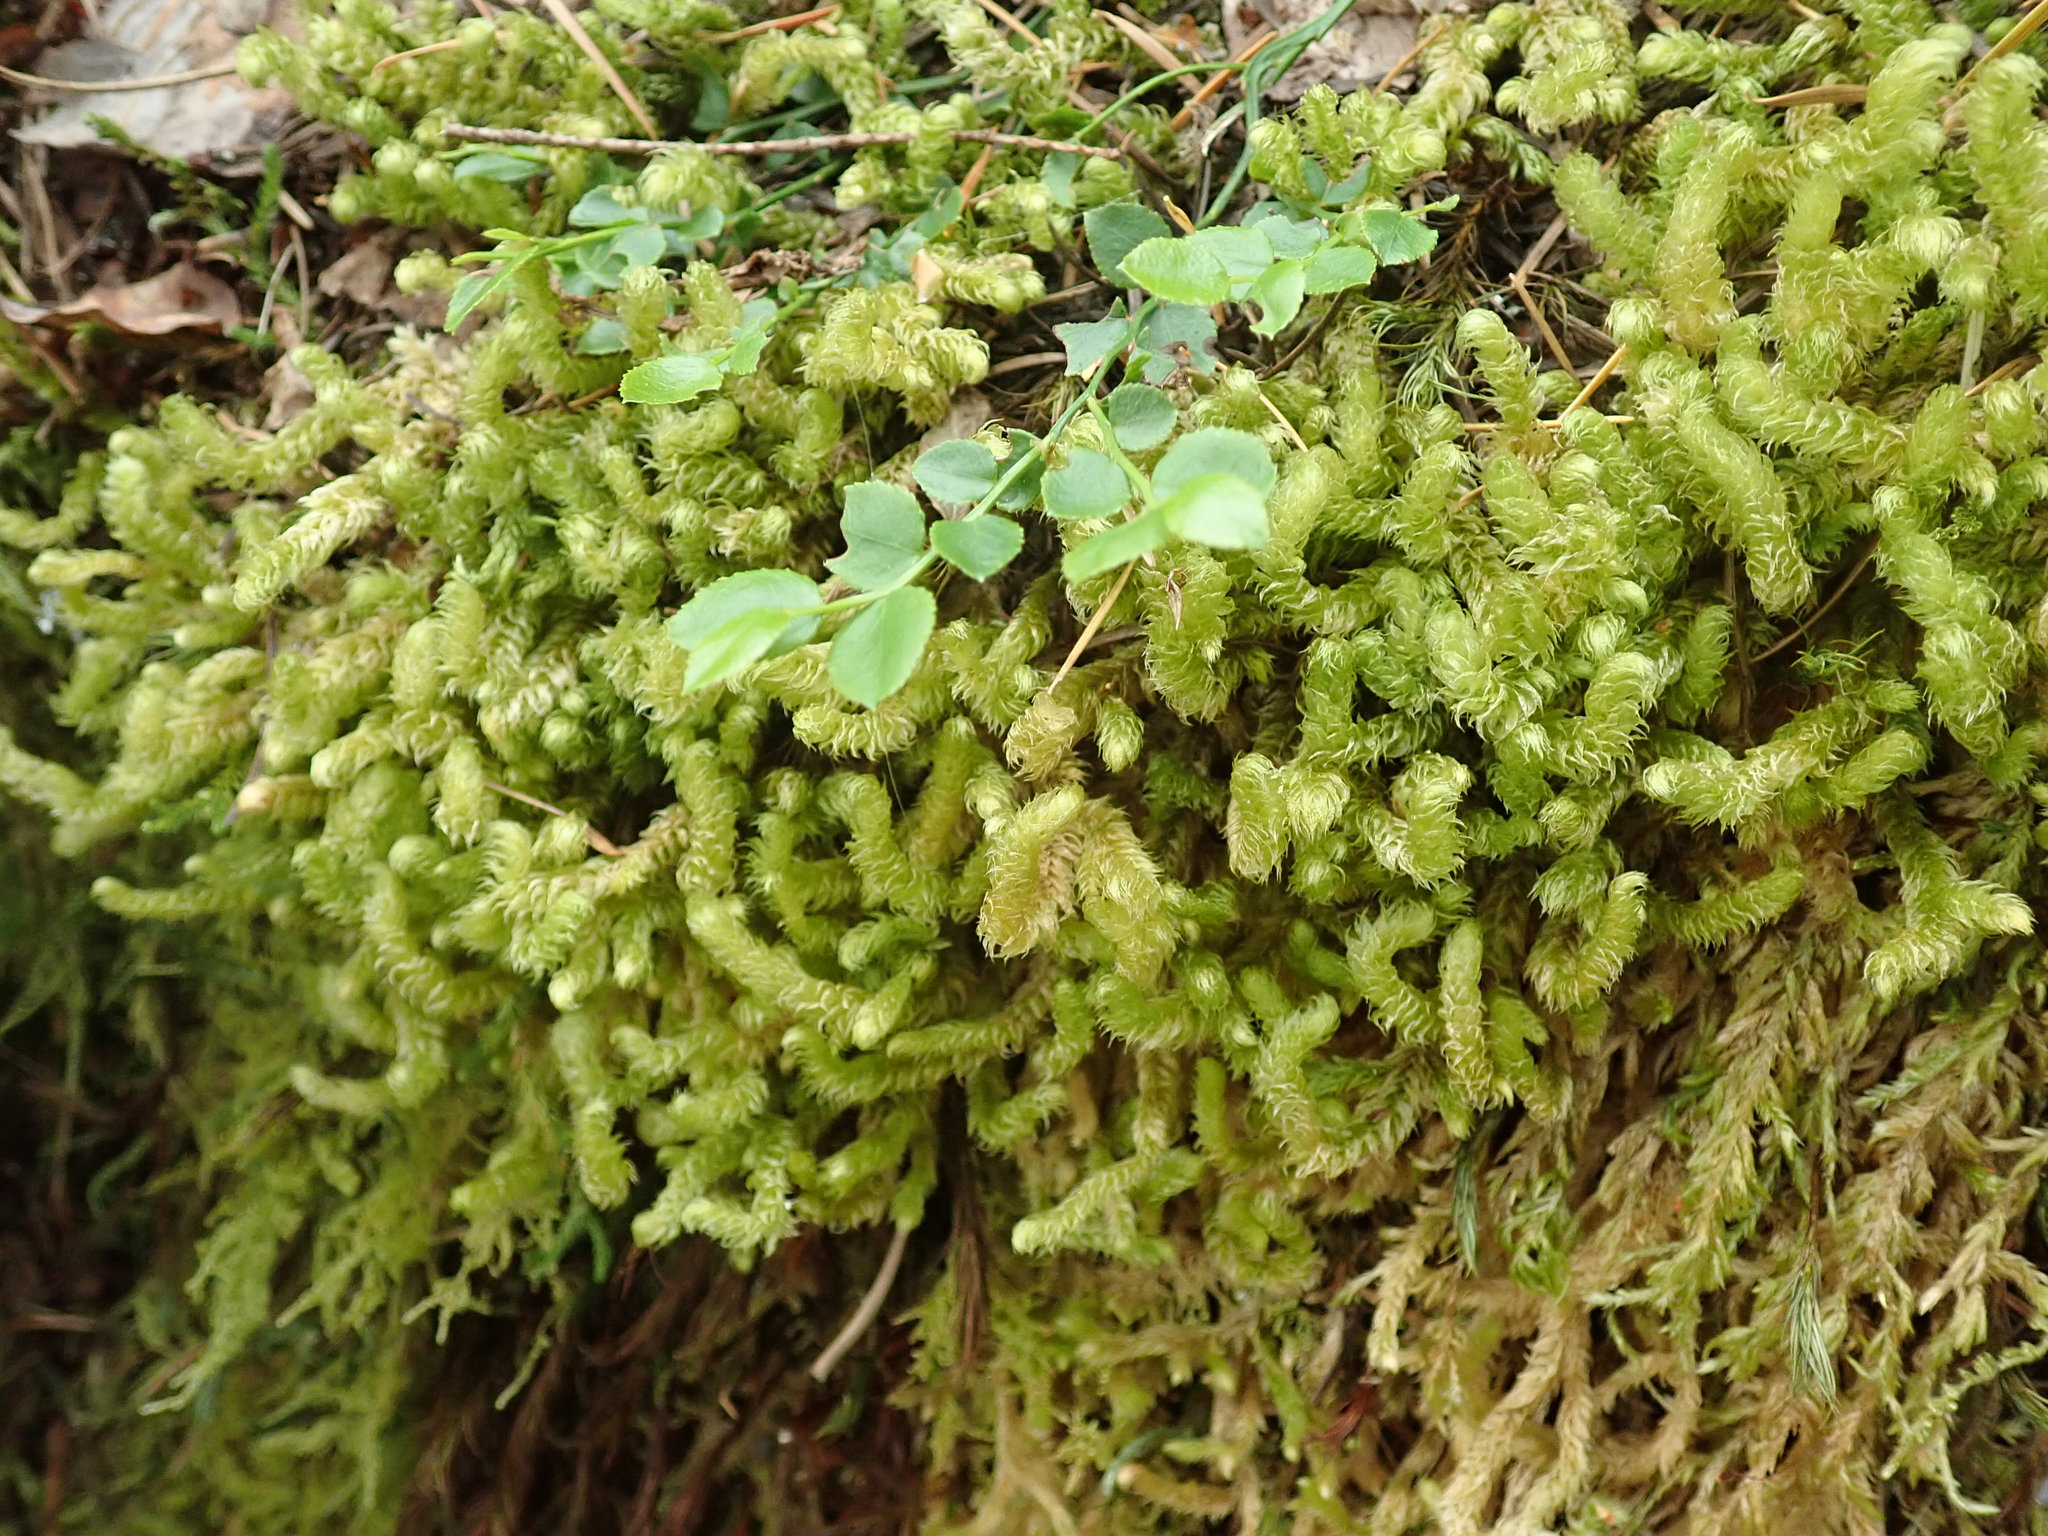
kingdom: Plantae
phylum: Bryophyta
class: Bryopsida
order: Hypnales
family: Hylocomiaceae
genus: Rhytidiopsis
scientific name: Rhytidiopsis robusta
